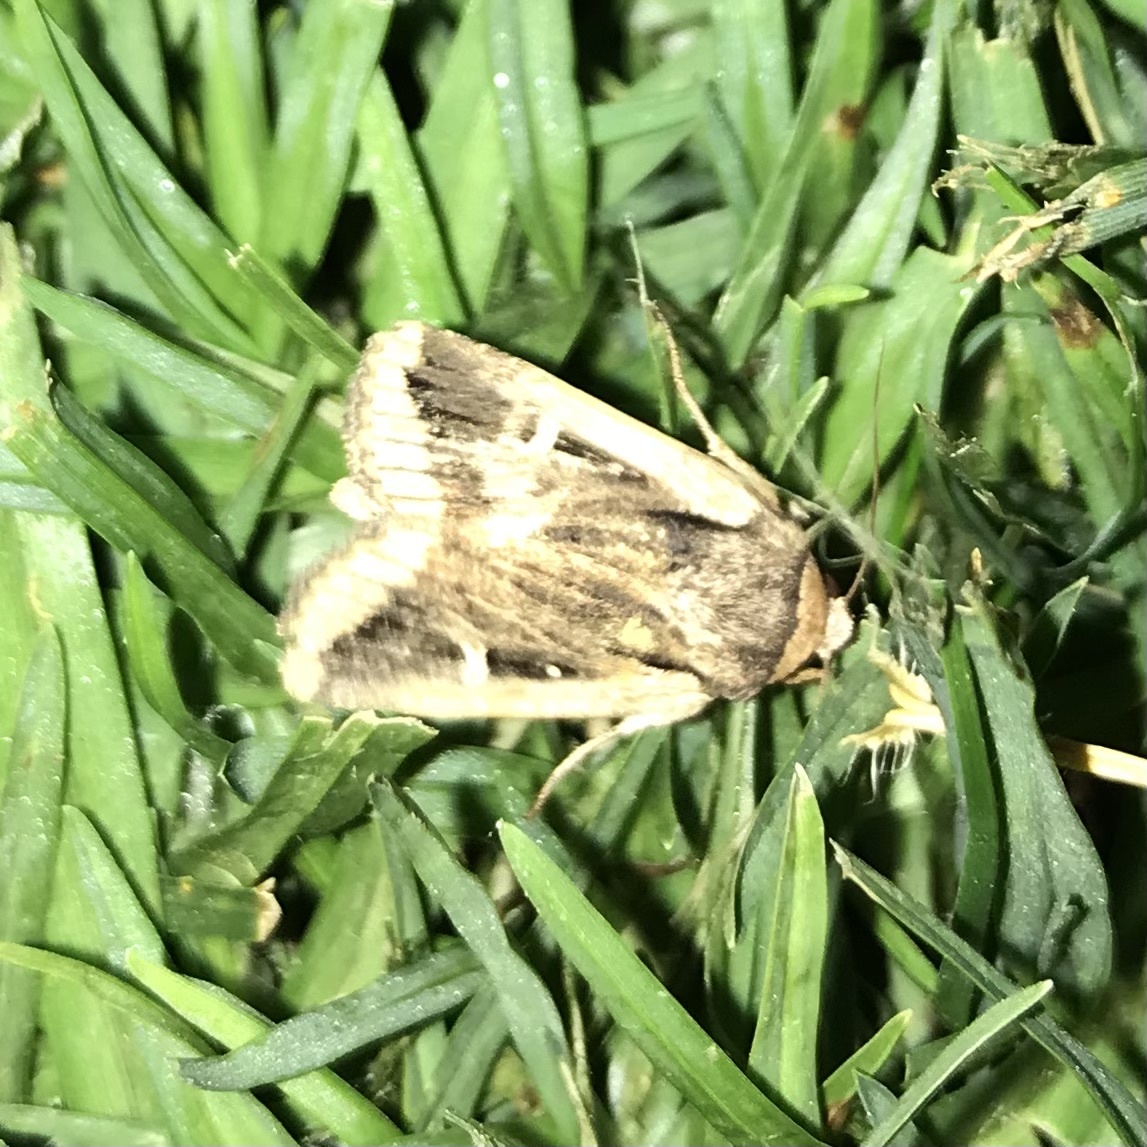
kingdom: Animalia
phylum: Arthropoda
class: Insecta
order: Lepidoptera
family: Noctuidae
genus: Proteuxoa
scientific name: Proteuxoa tortisigna
